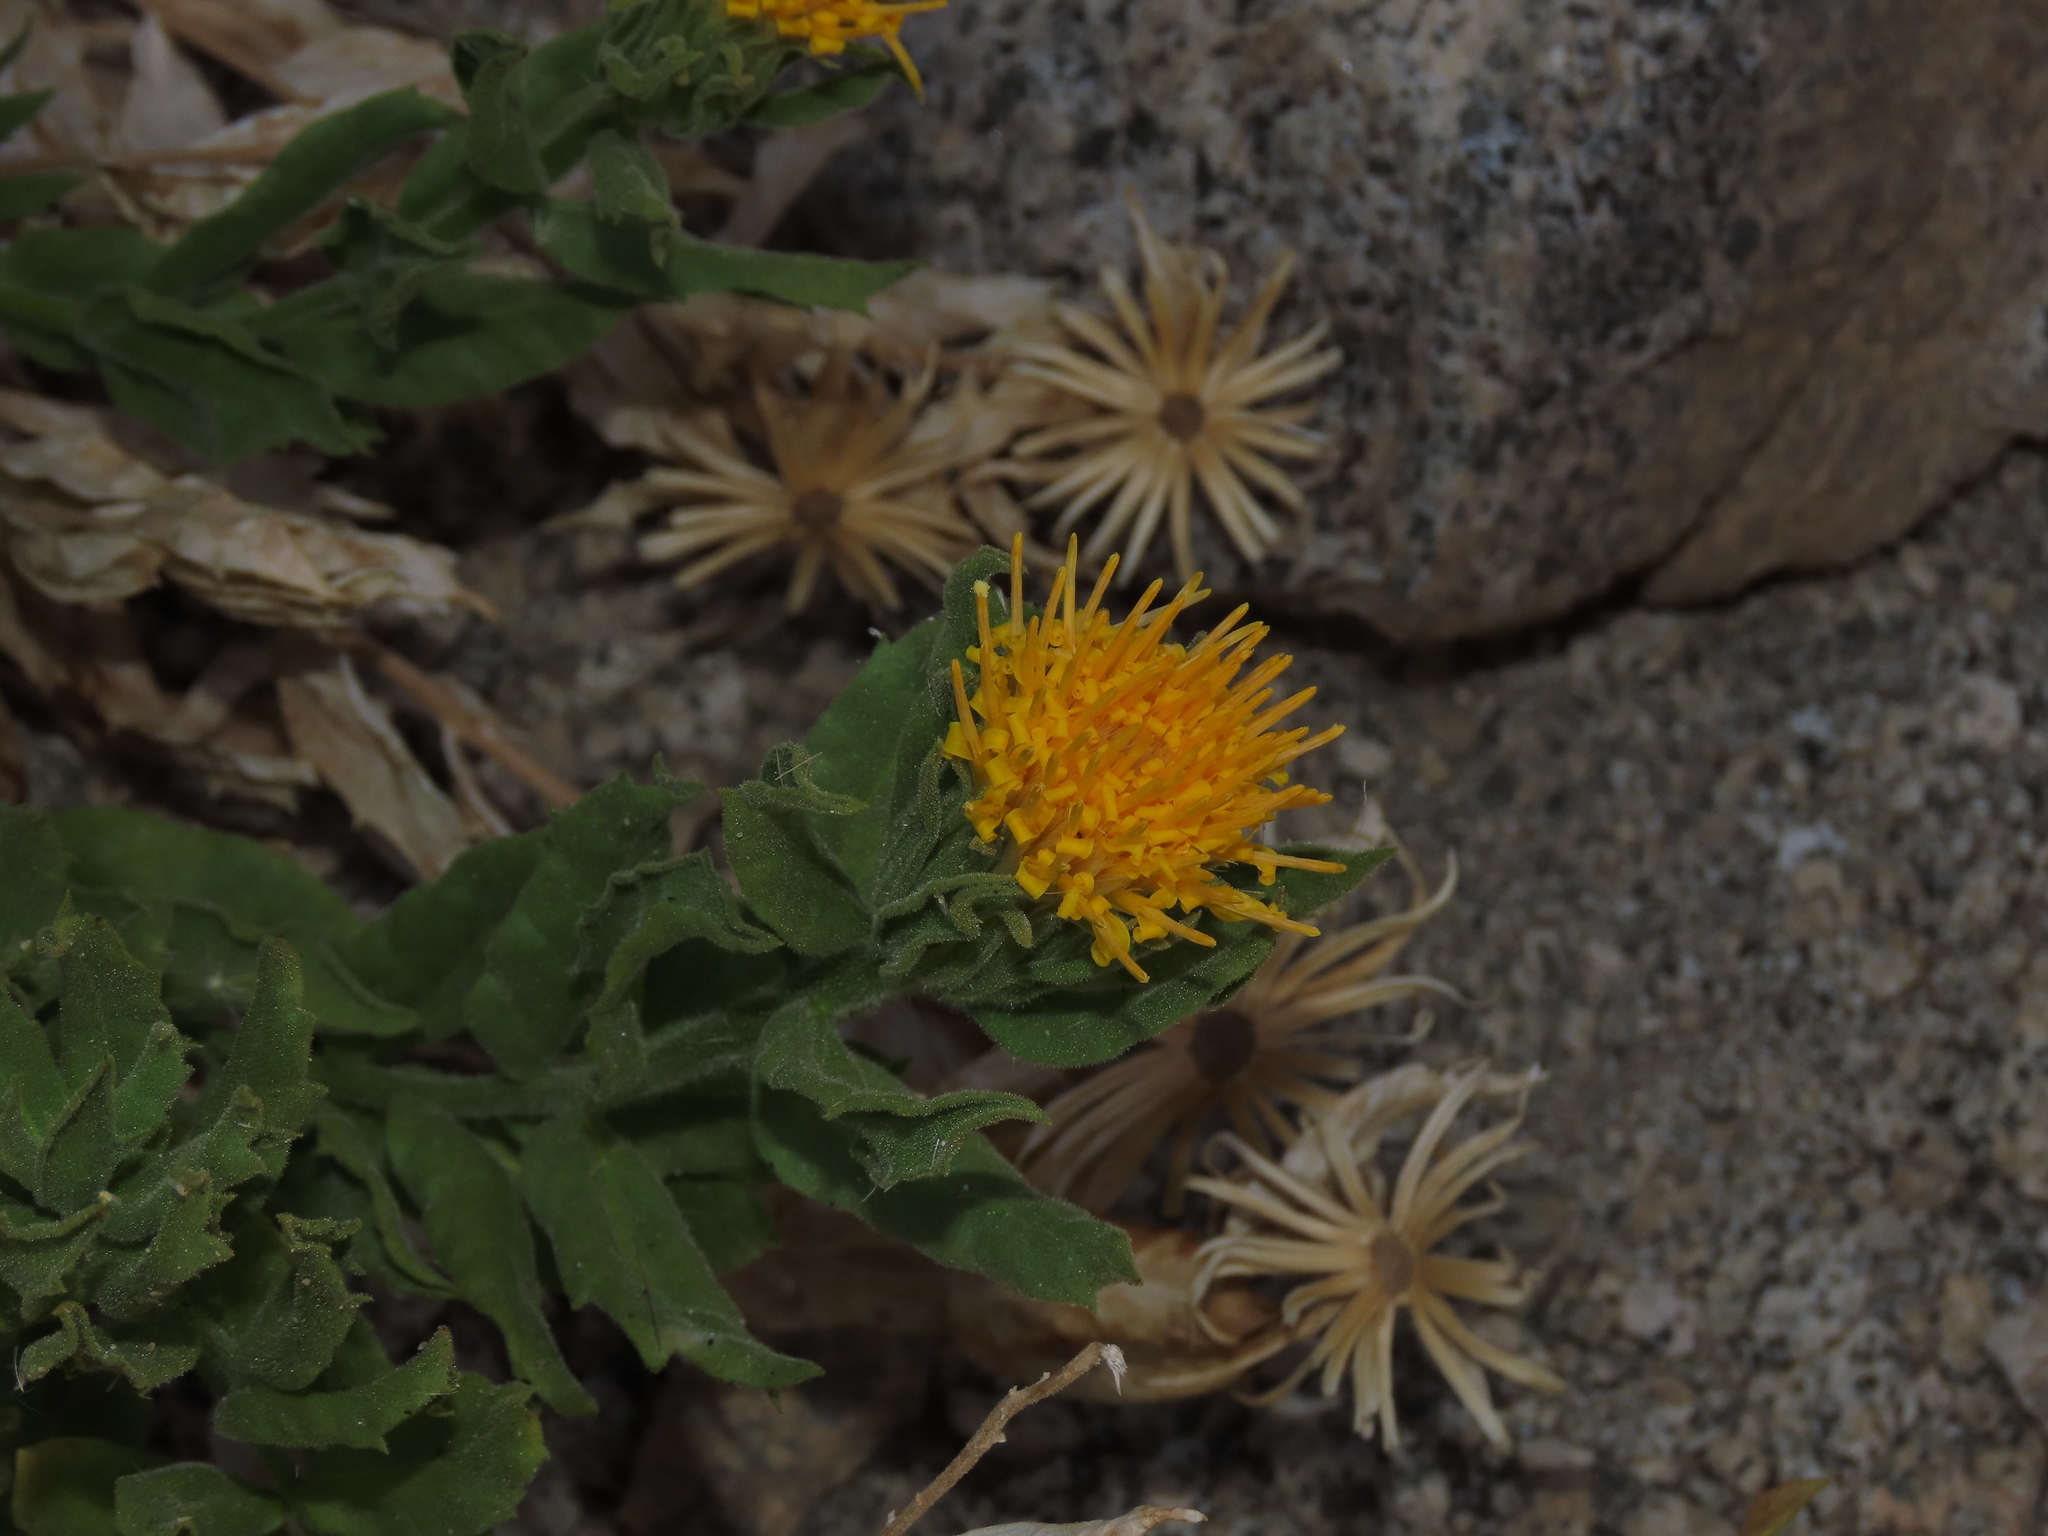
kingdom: Plantae
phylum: Tracheophyta
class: Magnoliopsida
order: Asterales
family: Asteraceae
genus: Leunisia
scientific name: Leunisia laeta
